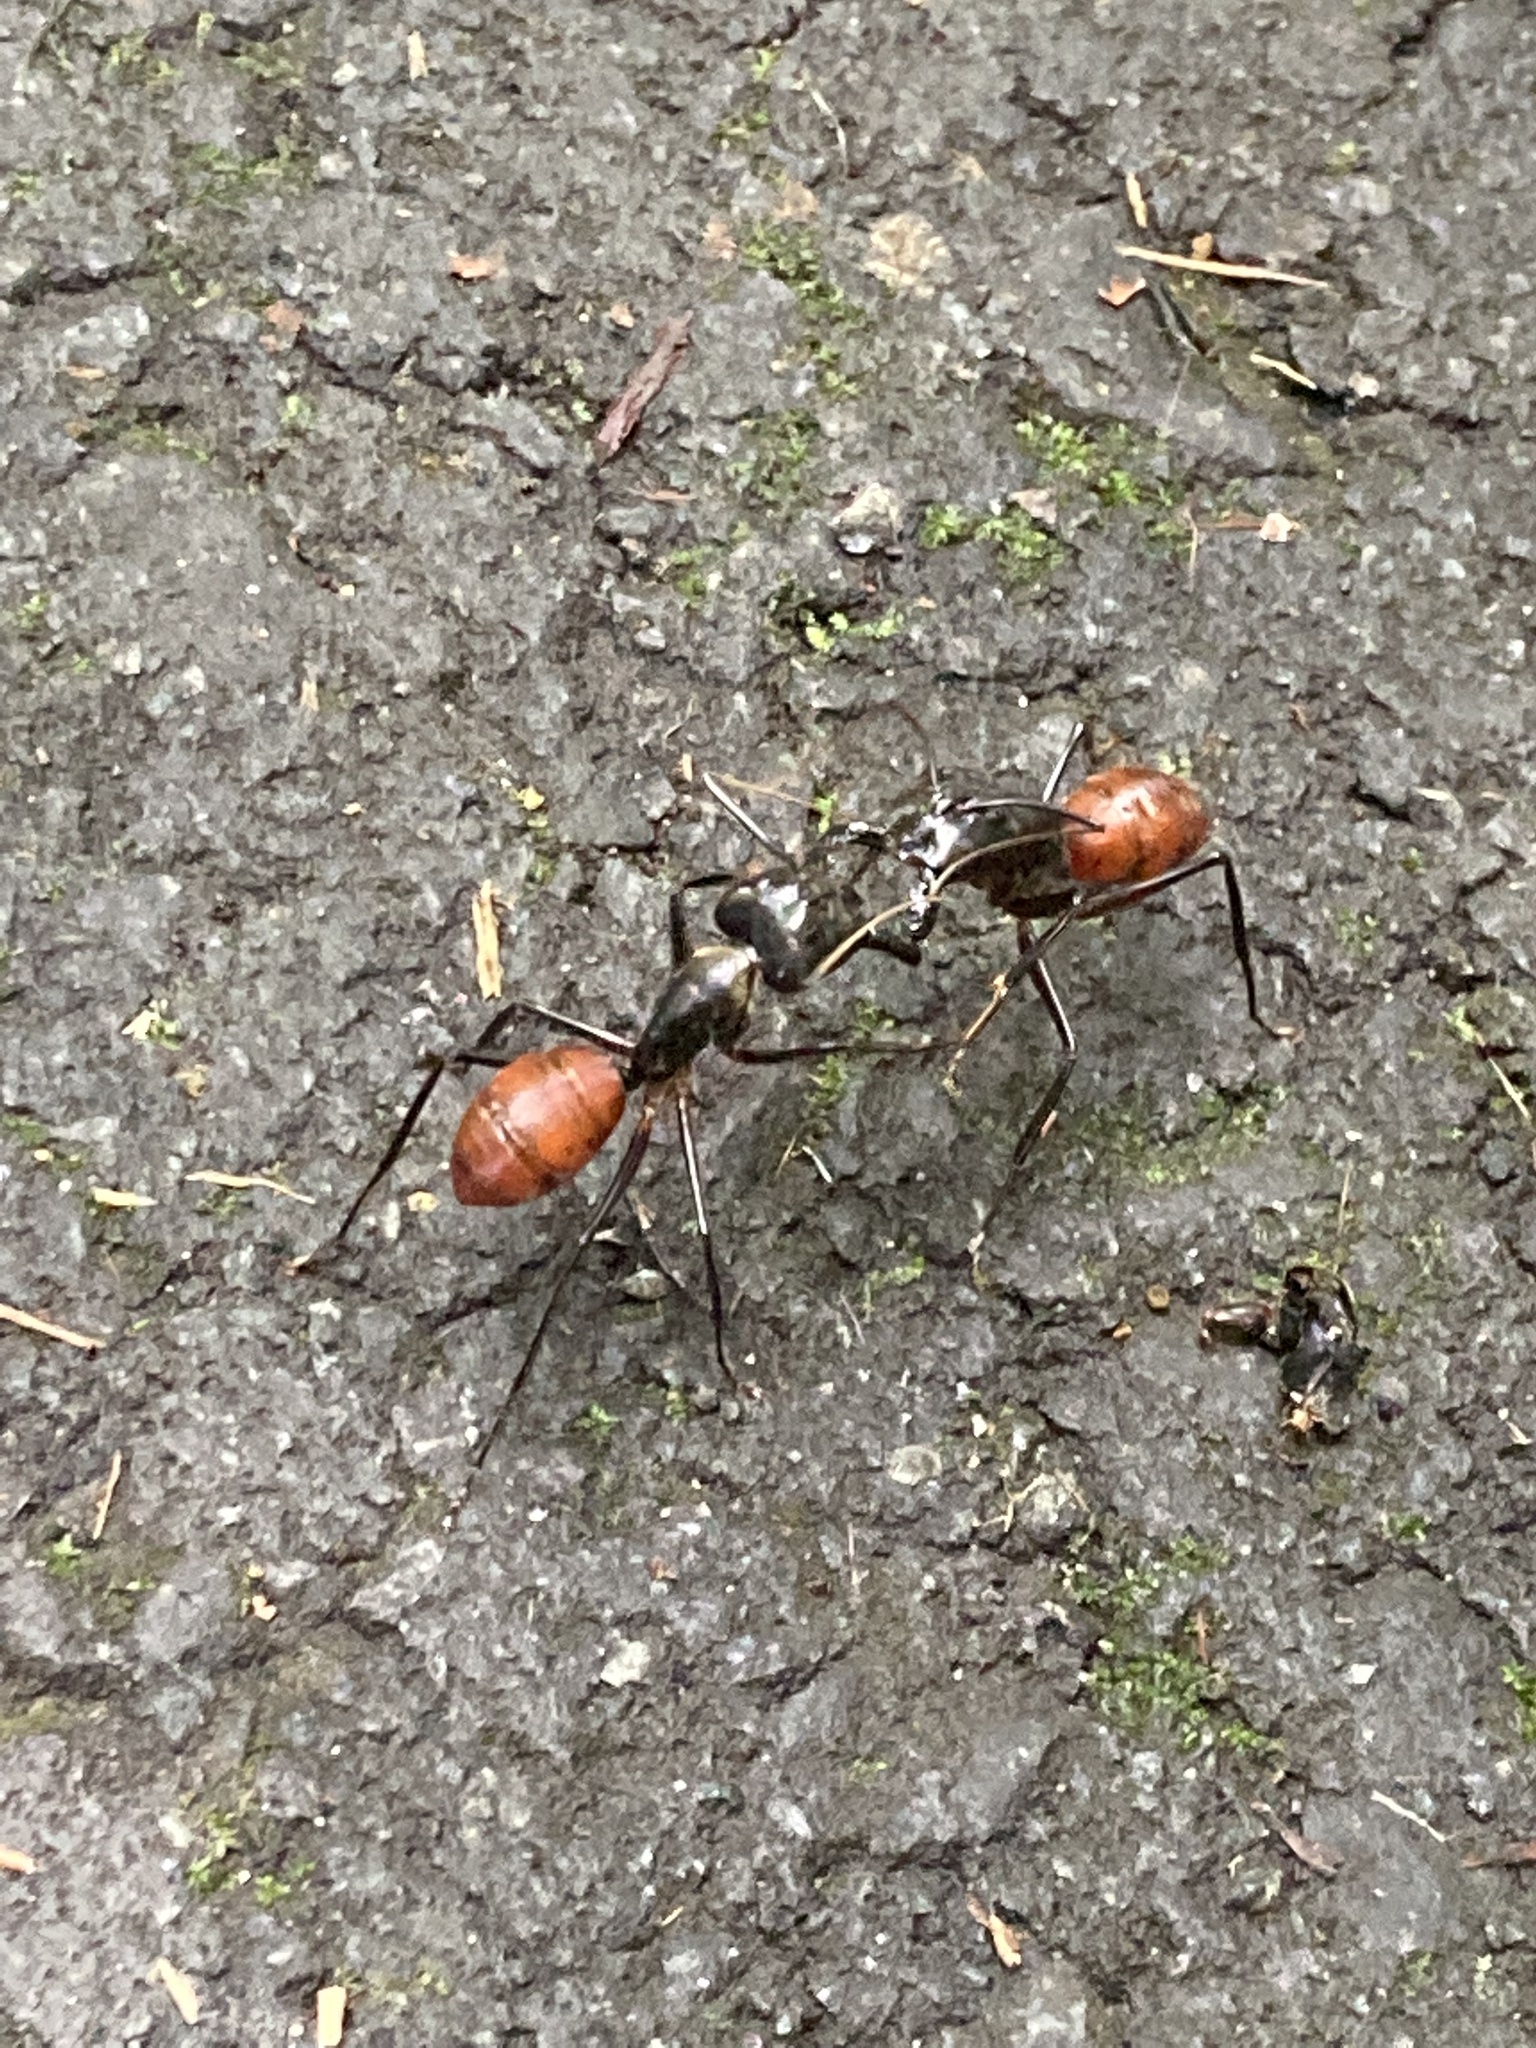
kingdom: Animalia
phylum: Arthropoda
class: Insecta
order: Hymenoptera
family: Formicidae
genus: Dinomyrmex
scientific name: Dinomyrmex
